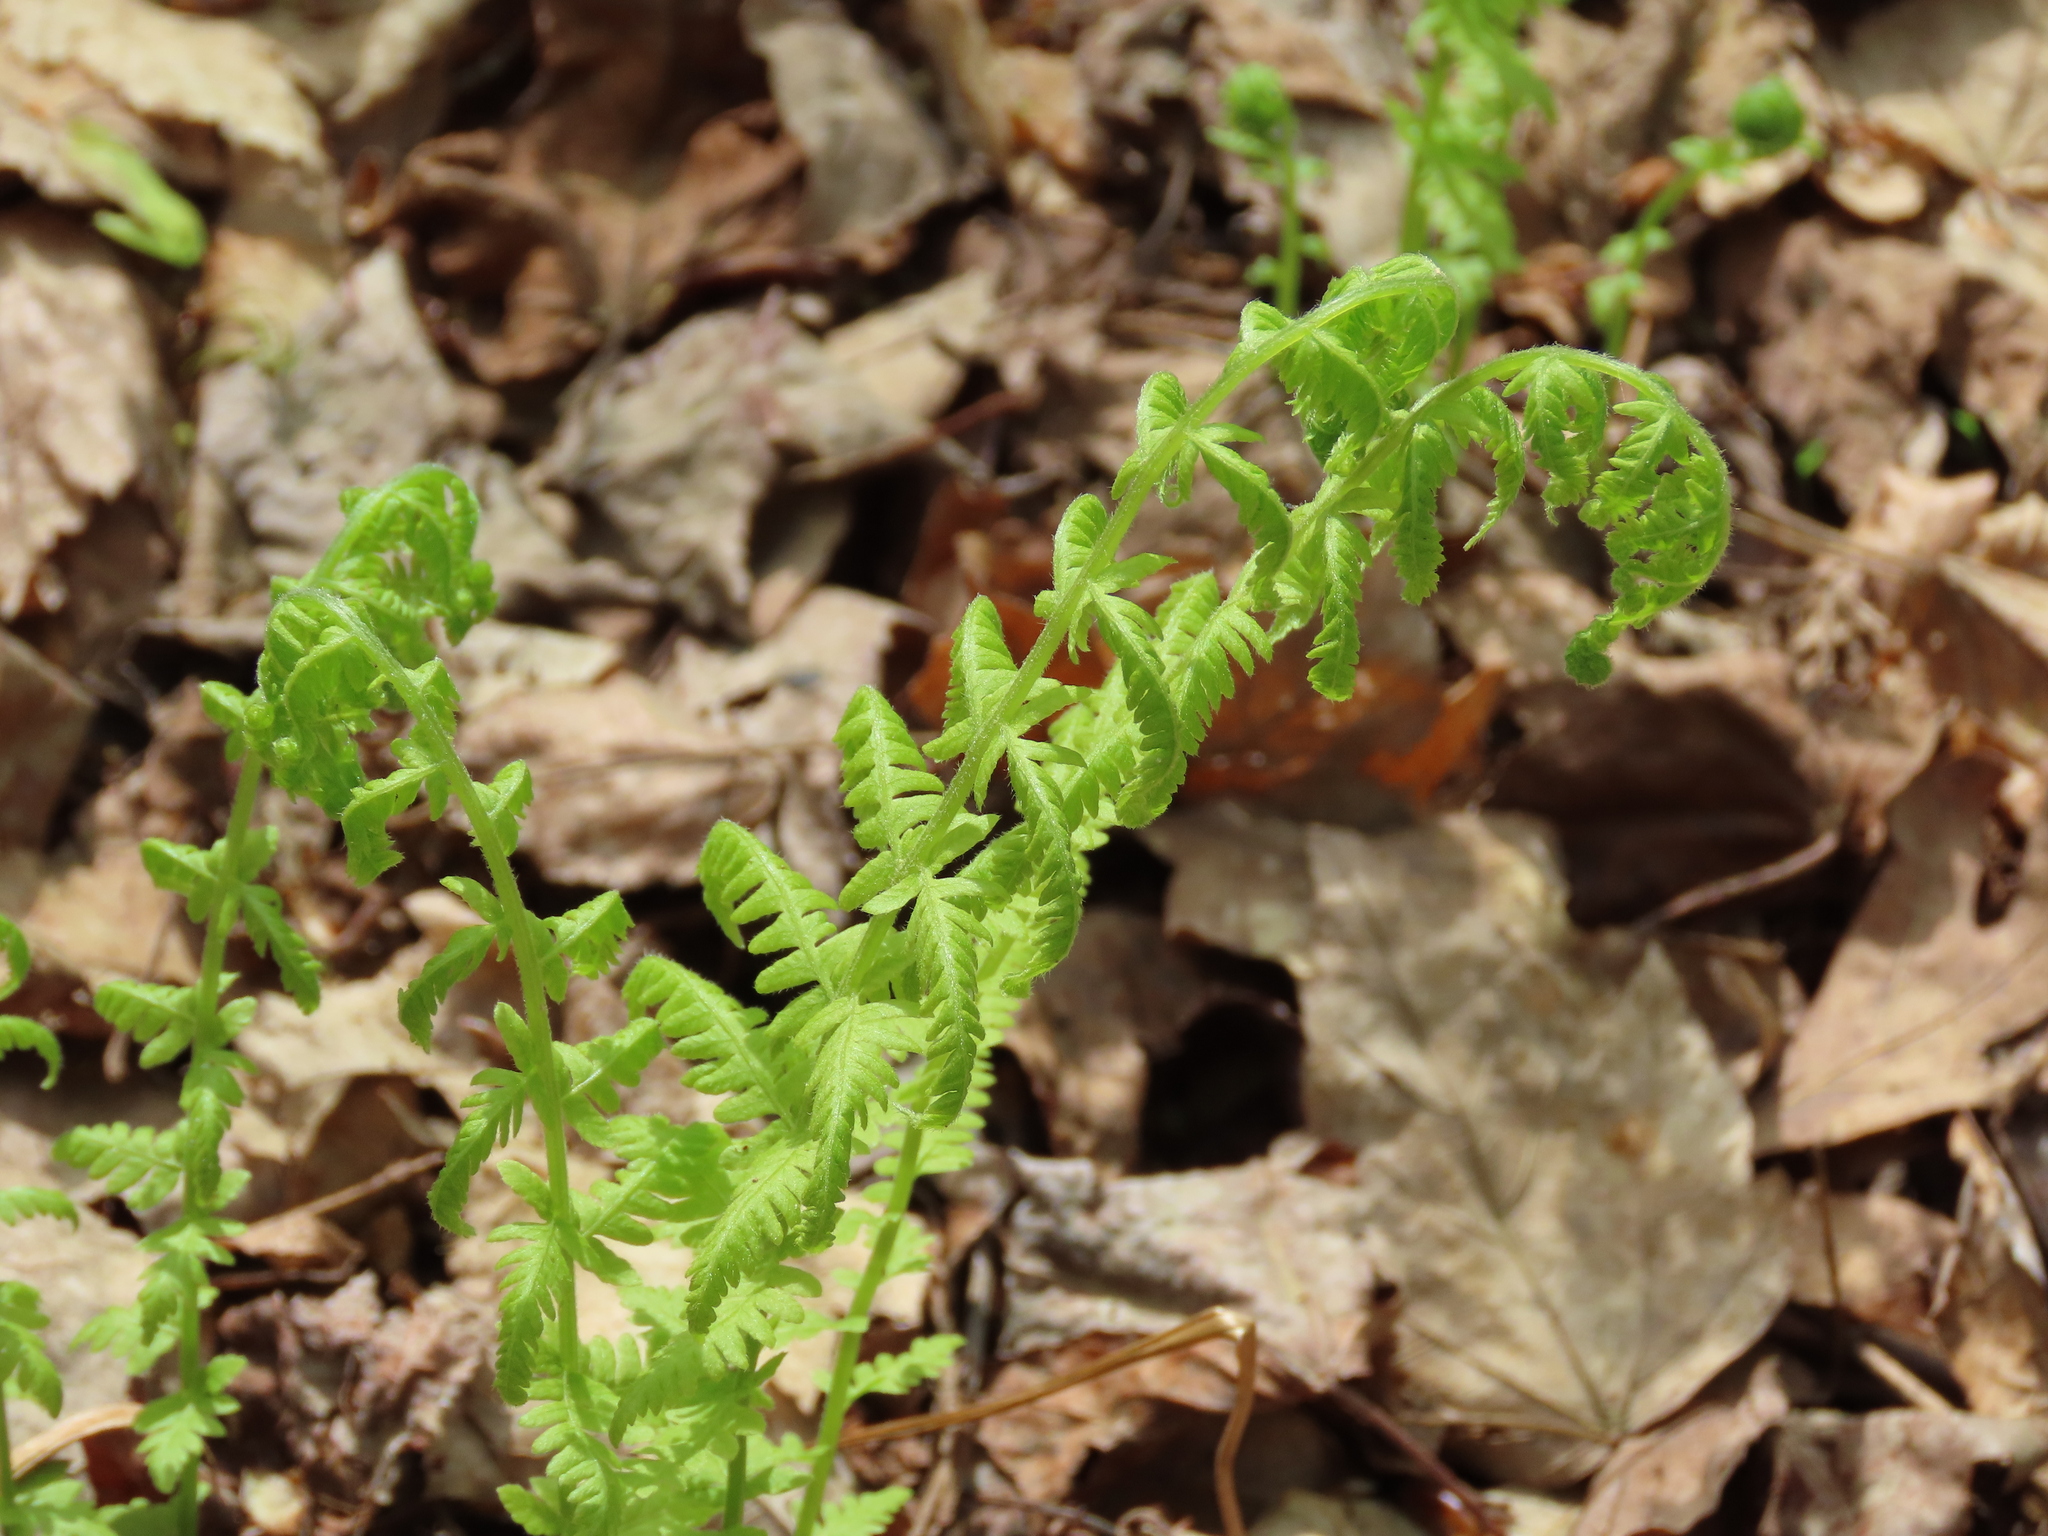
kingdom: Plantae
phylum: Tracheophyta
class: Polypodiopsida
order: Polypodiales
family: Thelypteridaceae
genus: Amauropelta
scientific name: Amauropelta noveboracensis
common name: New york fern
